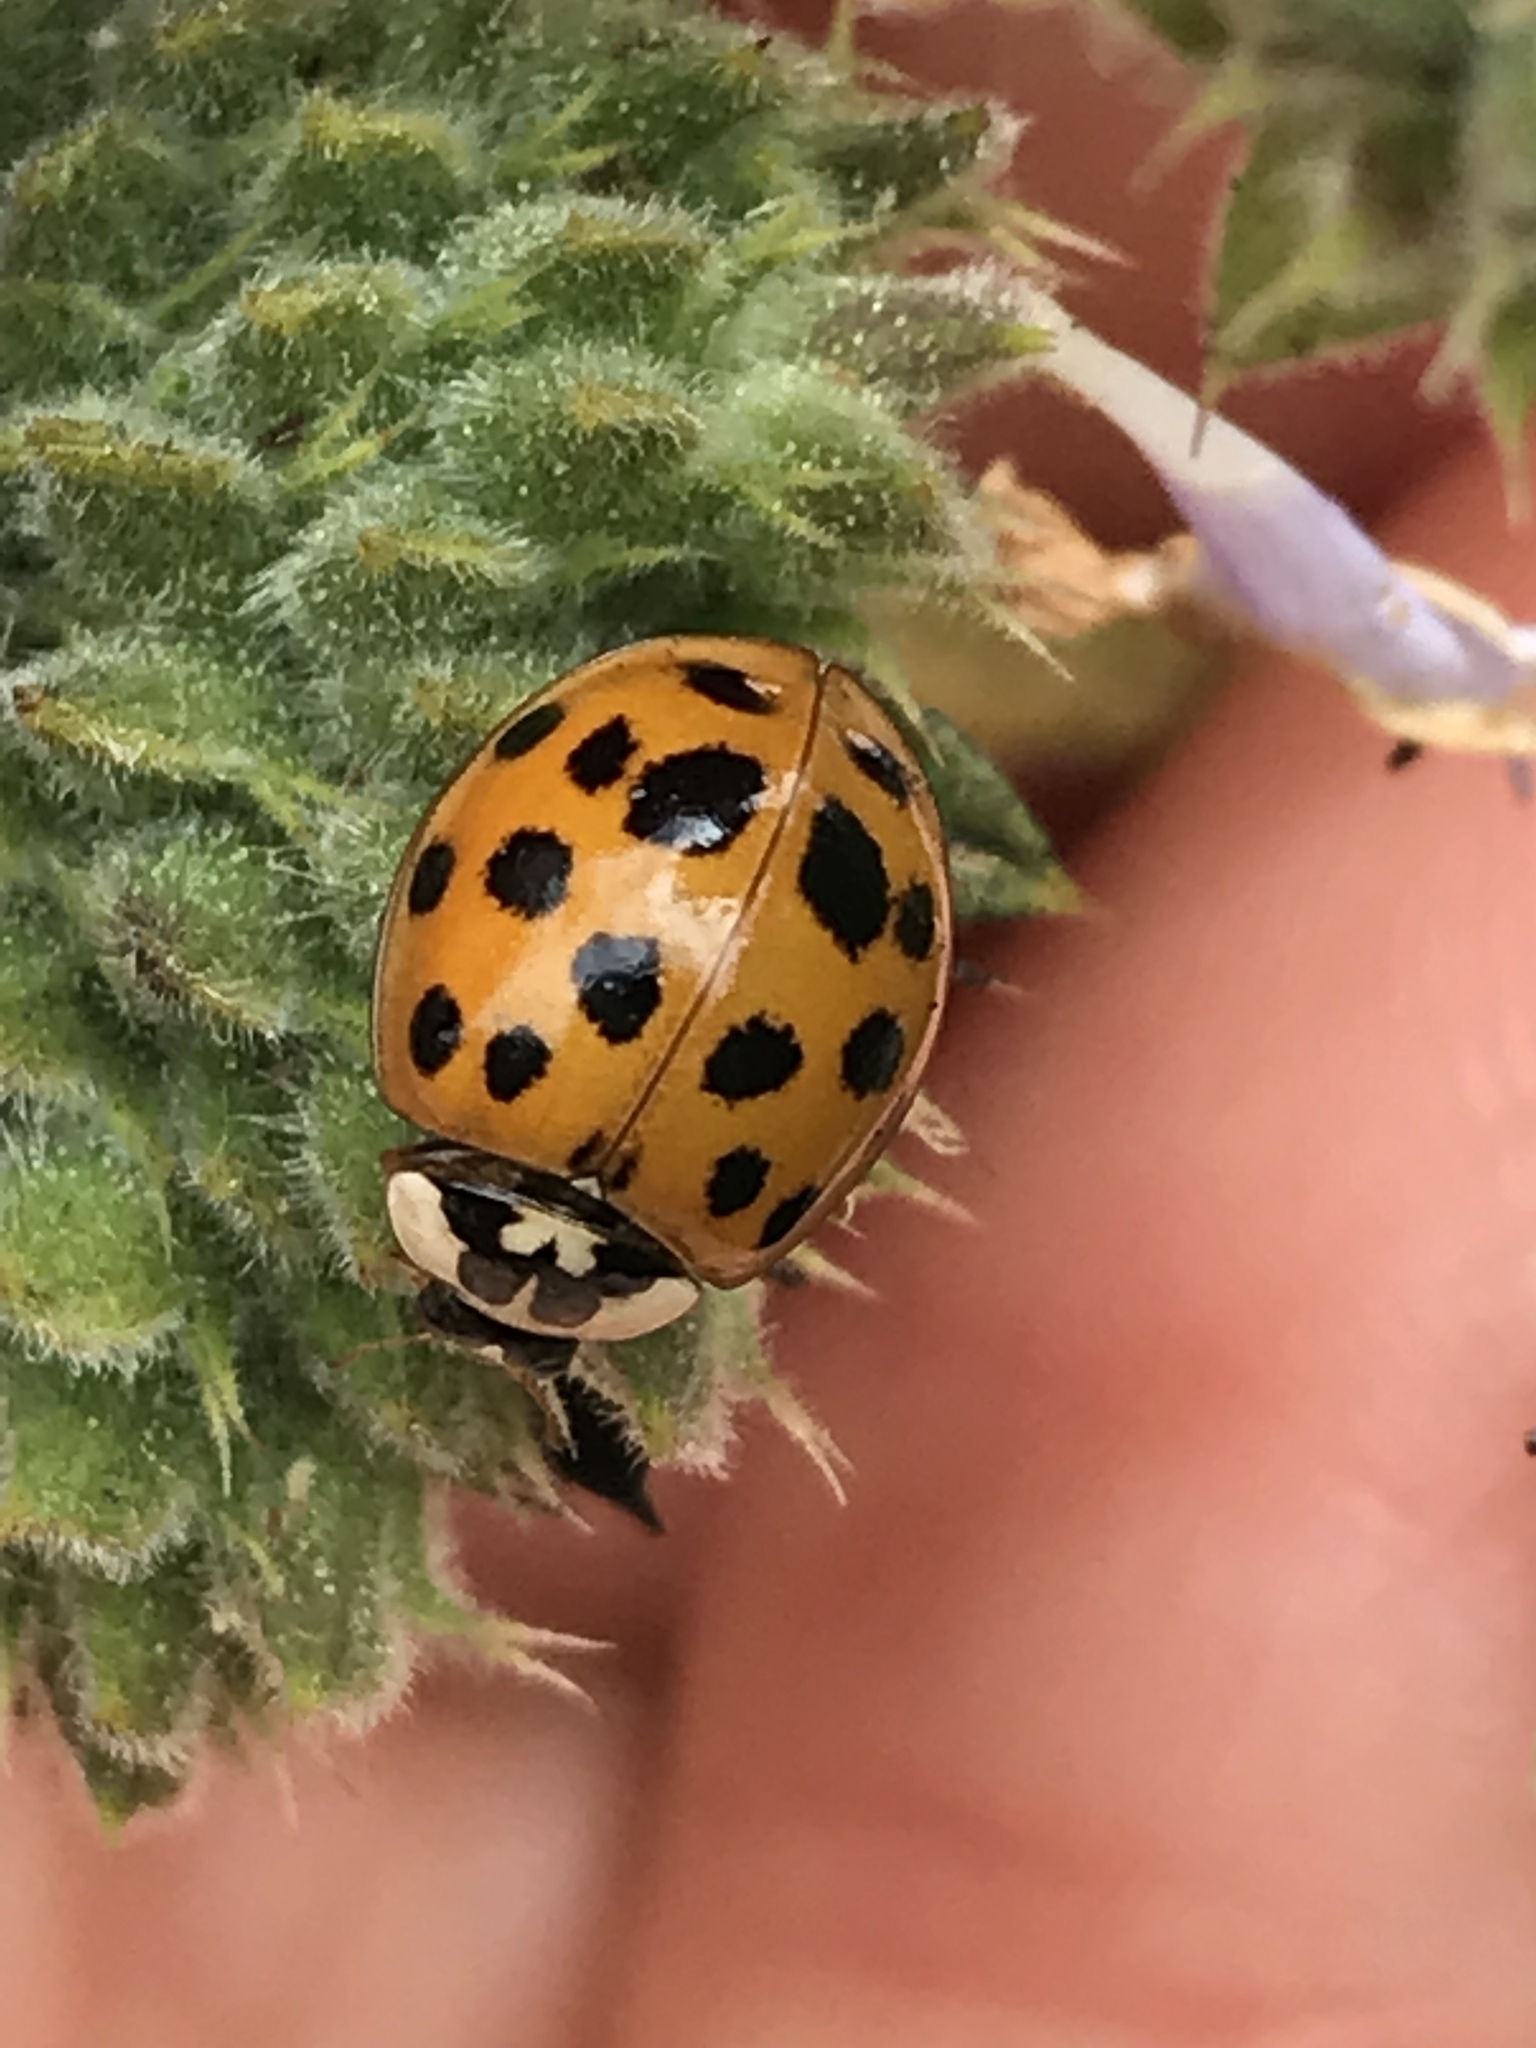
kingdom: Animalia
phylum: Arthropoda
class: Insecta
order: Coleoptera
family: Coccinellidae
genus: Harmonia
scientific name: Harmonia axyridis
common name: Harlequin ladybird
